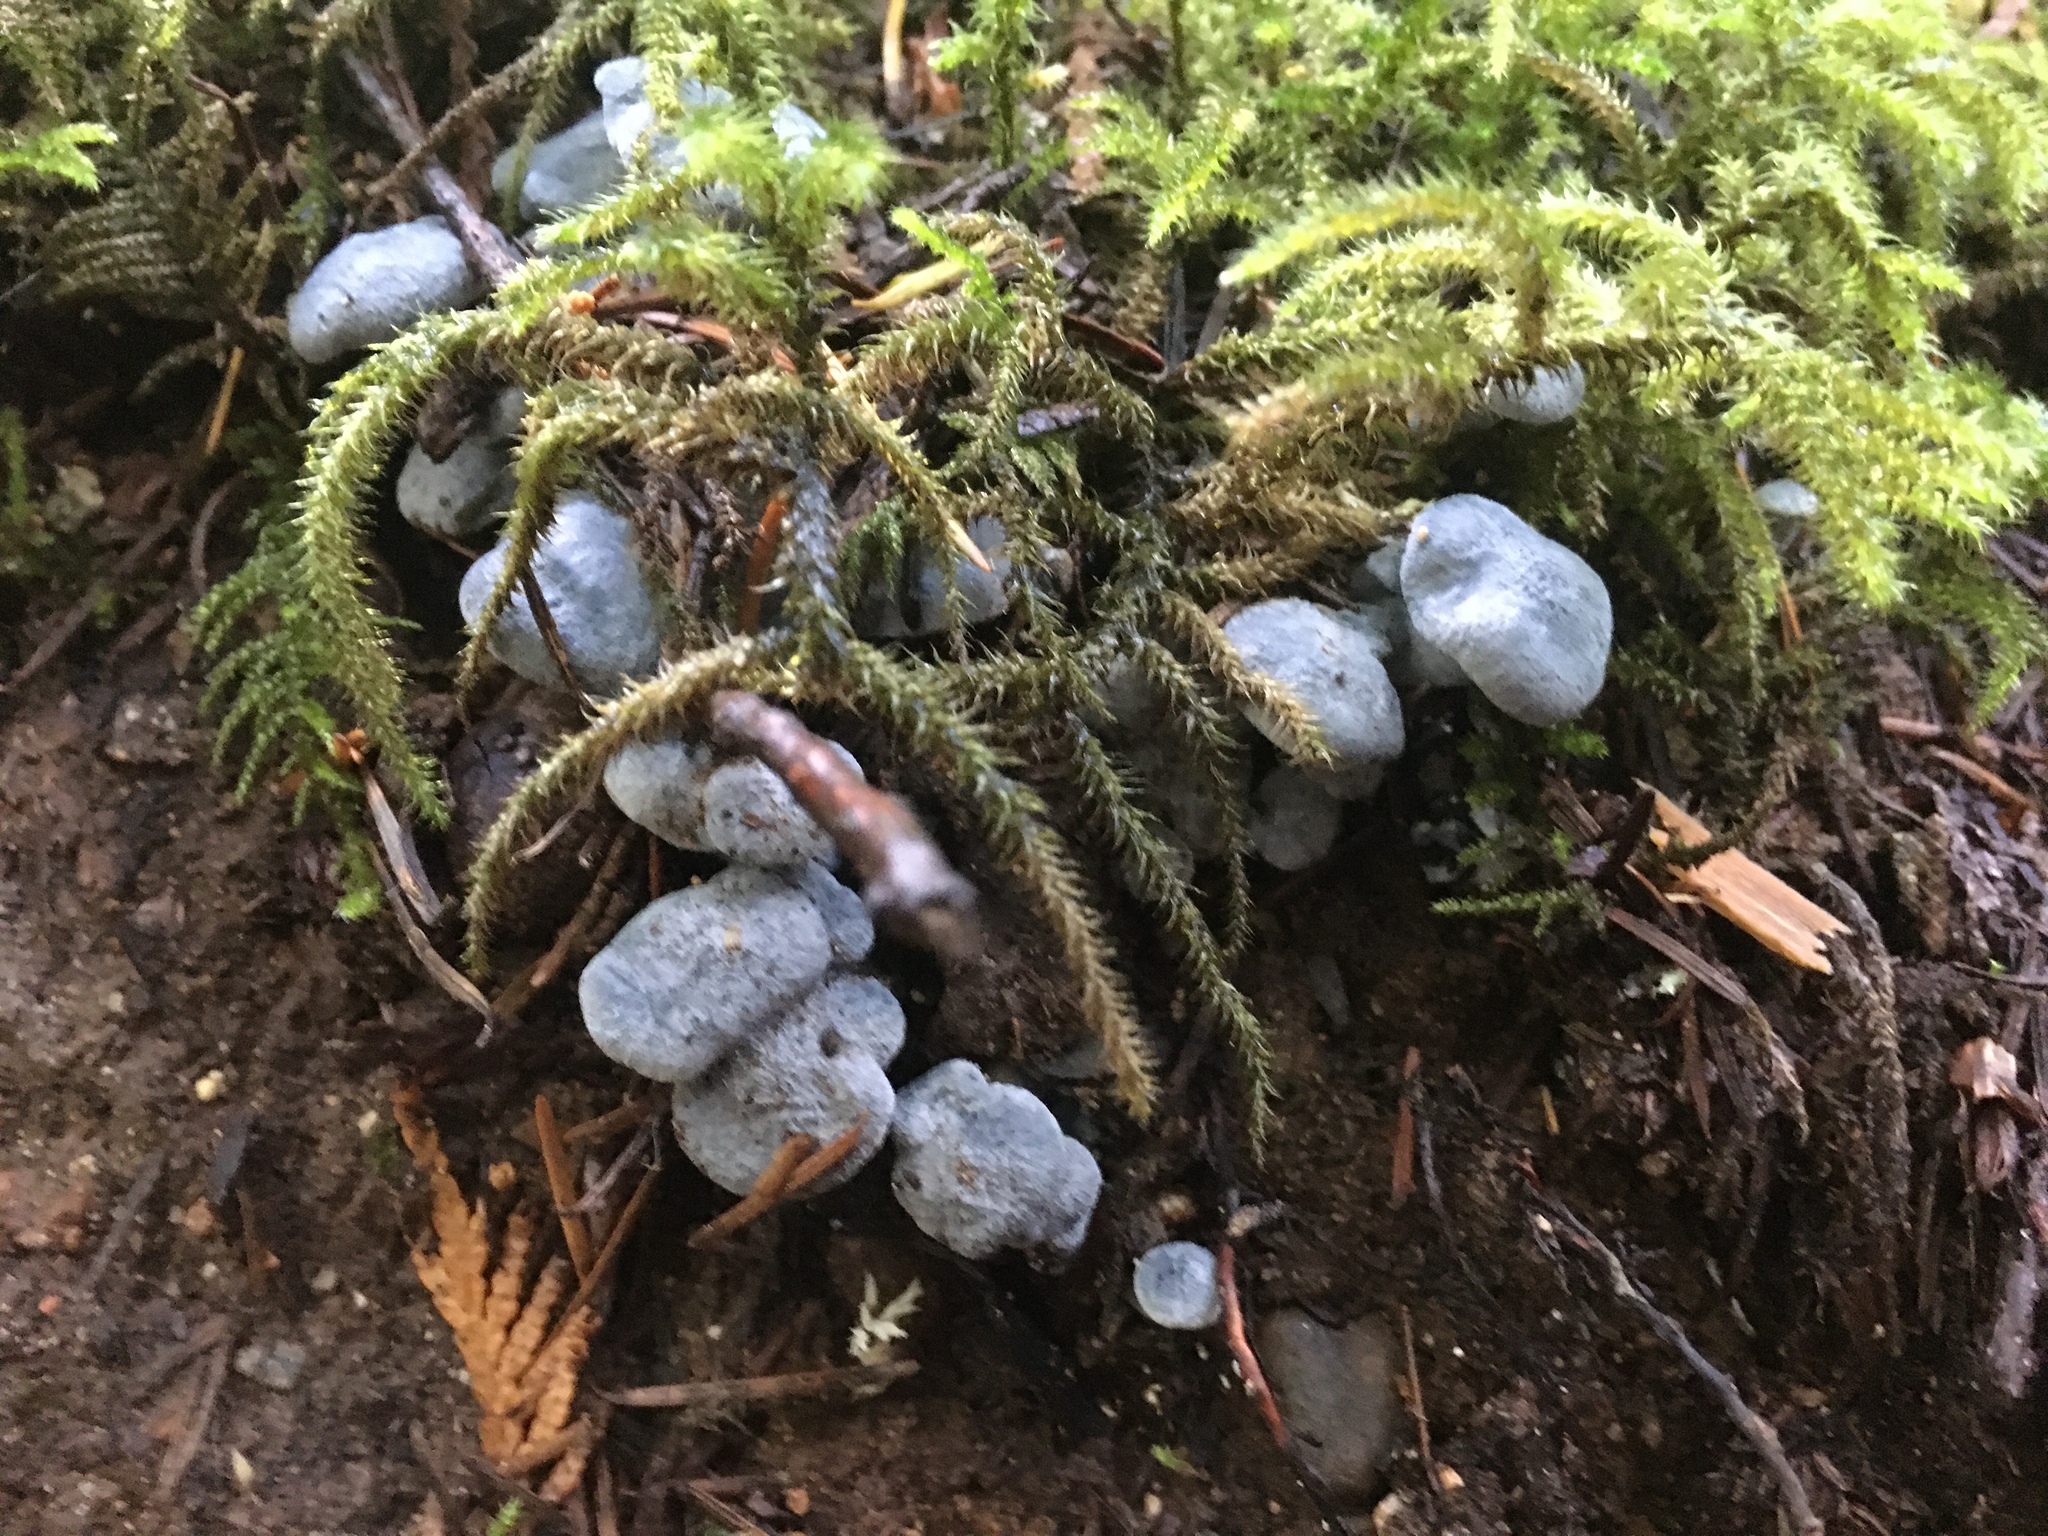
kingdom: Fungi
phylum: Basidiomycota
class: Agaricomycetes
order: Russulales
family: Albatrellaceae
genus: Neoalbatrellus
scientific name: Neoalbatrellus subcaeruleoporus
